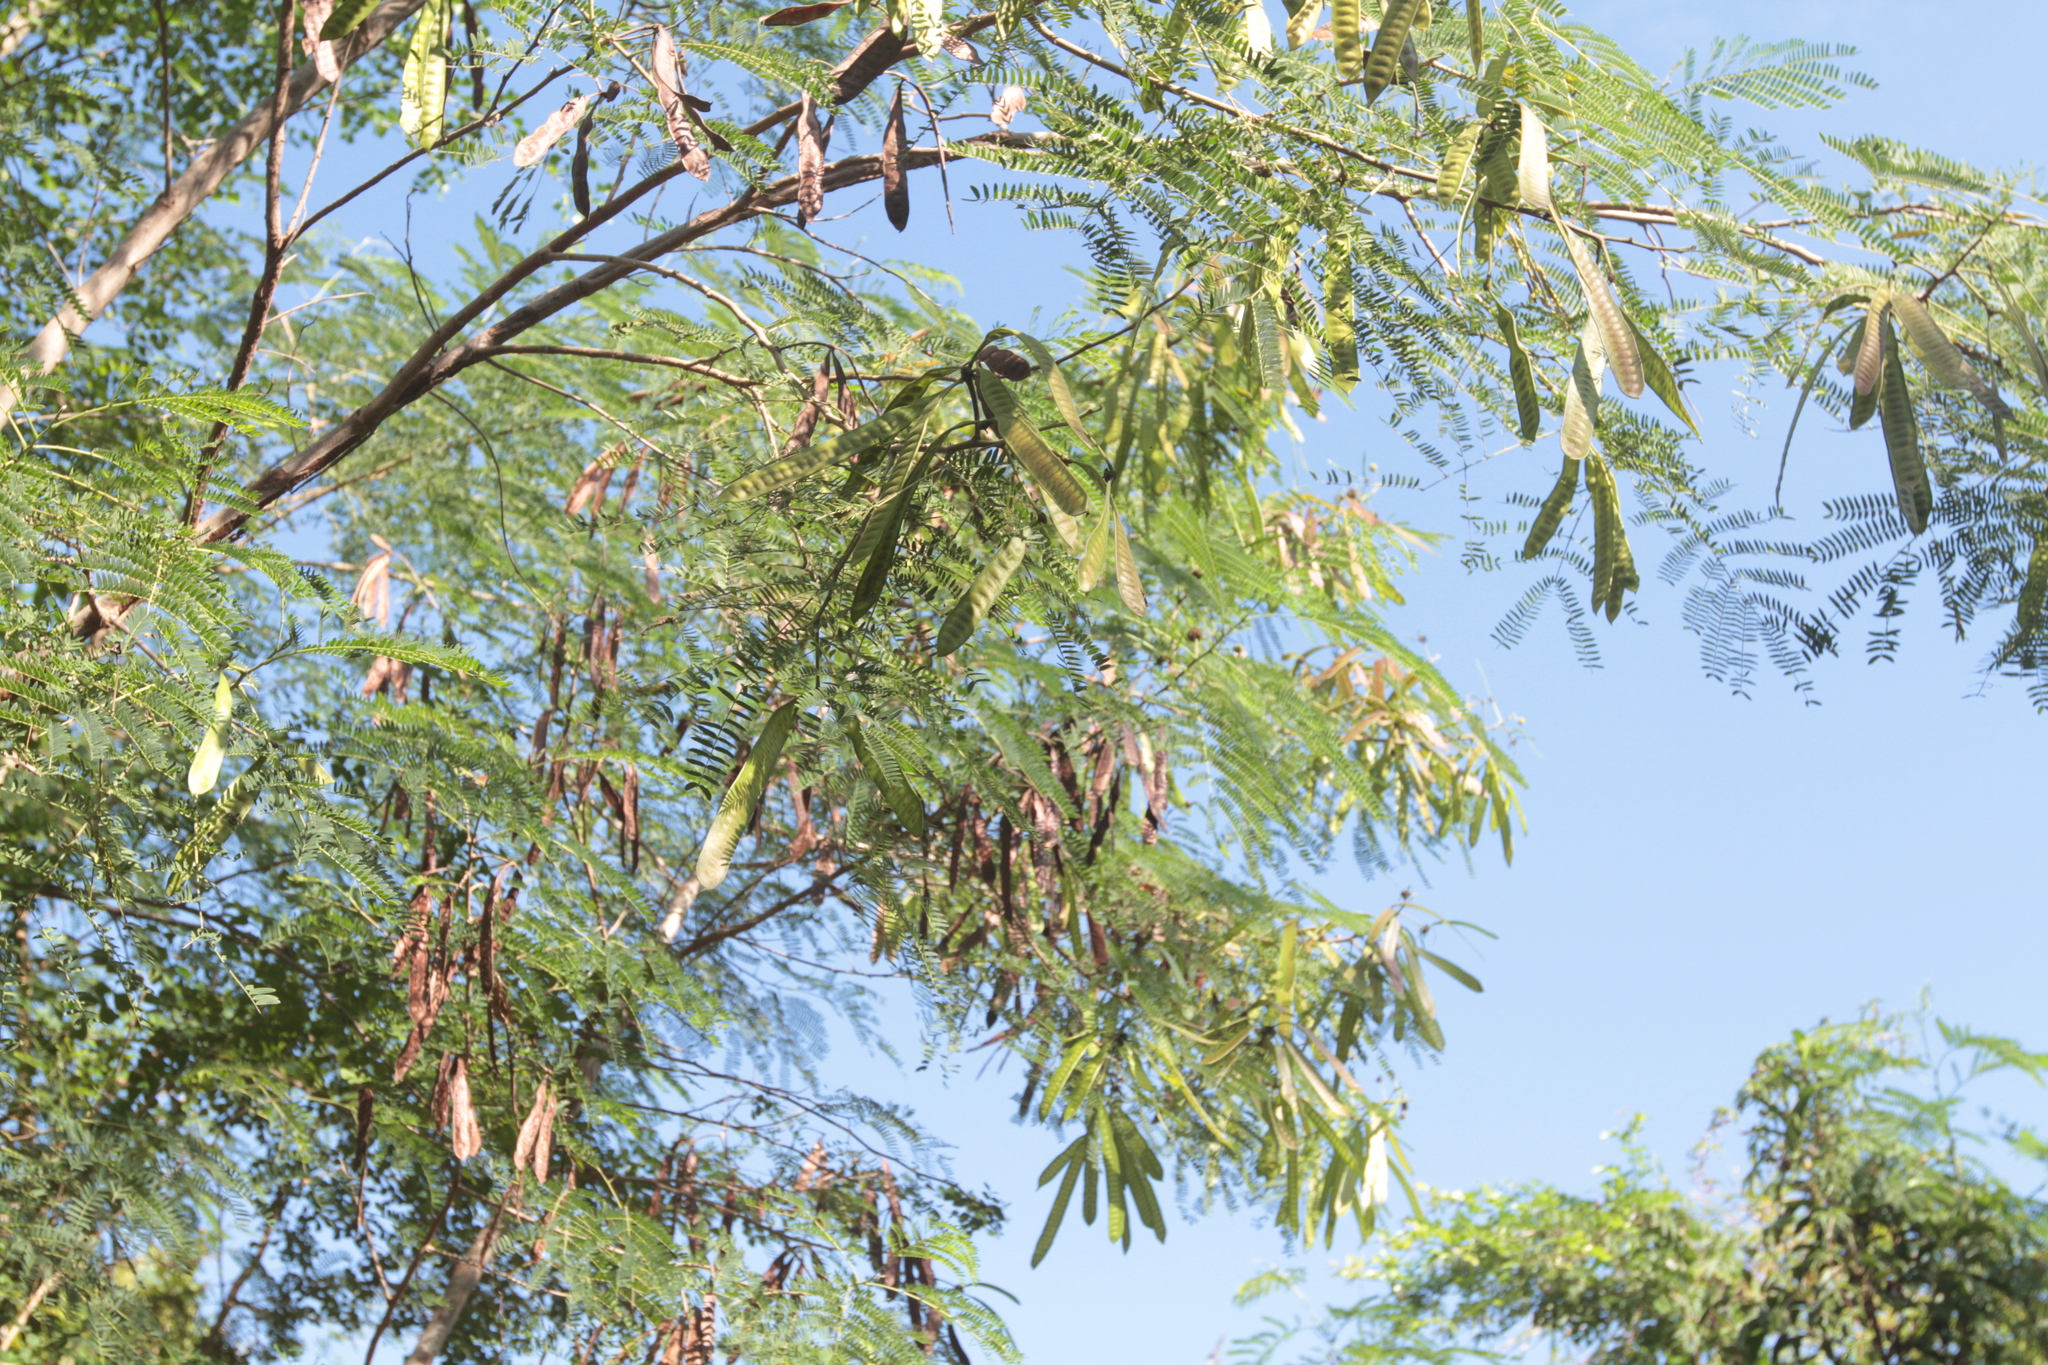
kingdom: Plantae
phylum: Tracheophyta
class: Magnoliopsida
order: Fabales
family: Fabaceae
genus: Leucaena
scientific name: Leucaena leucocephala
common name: White leadtree
